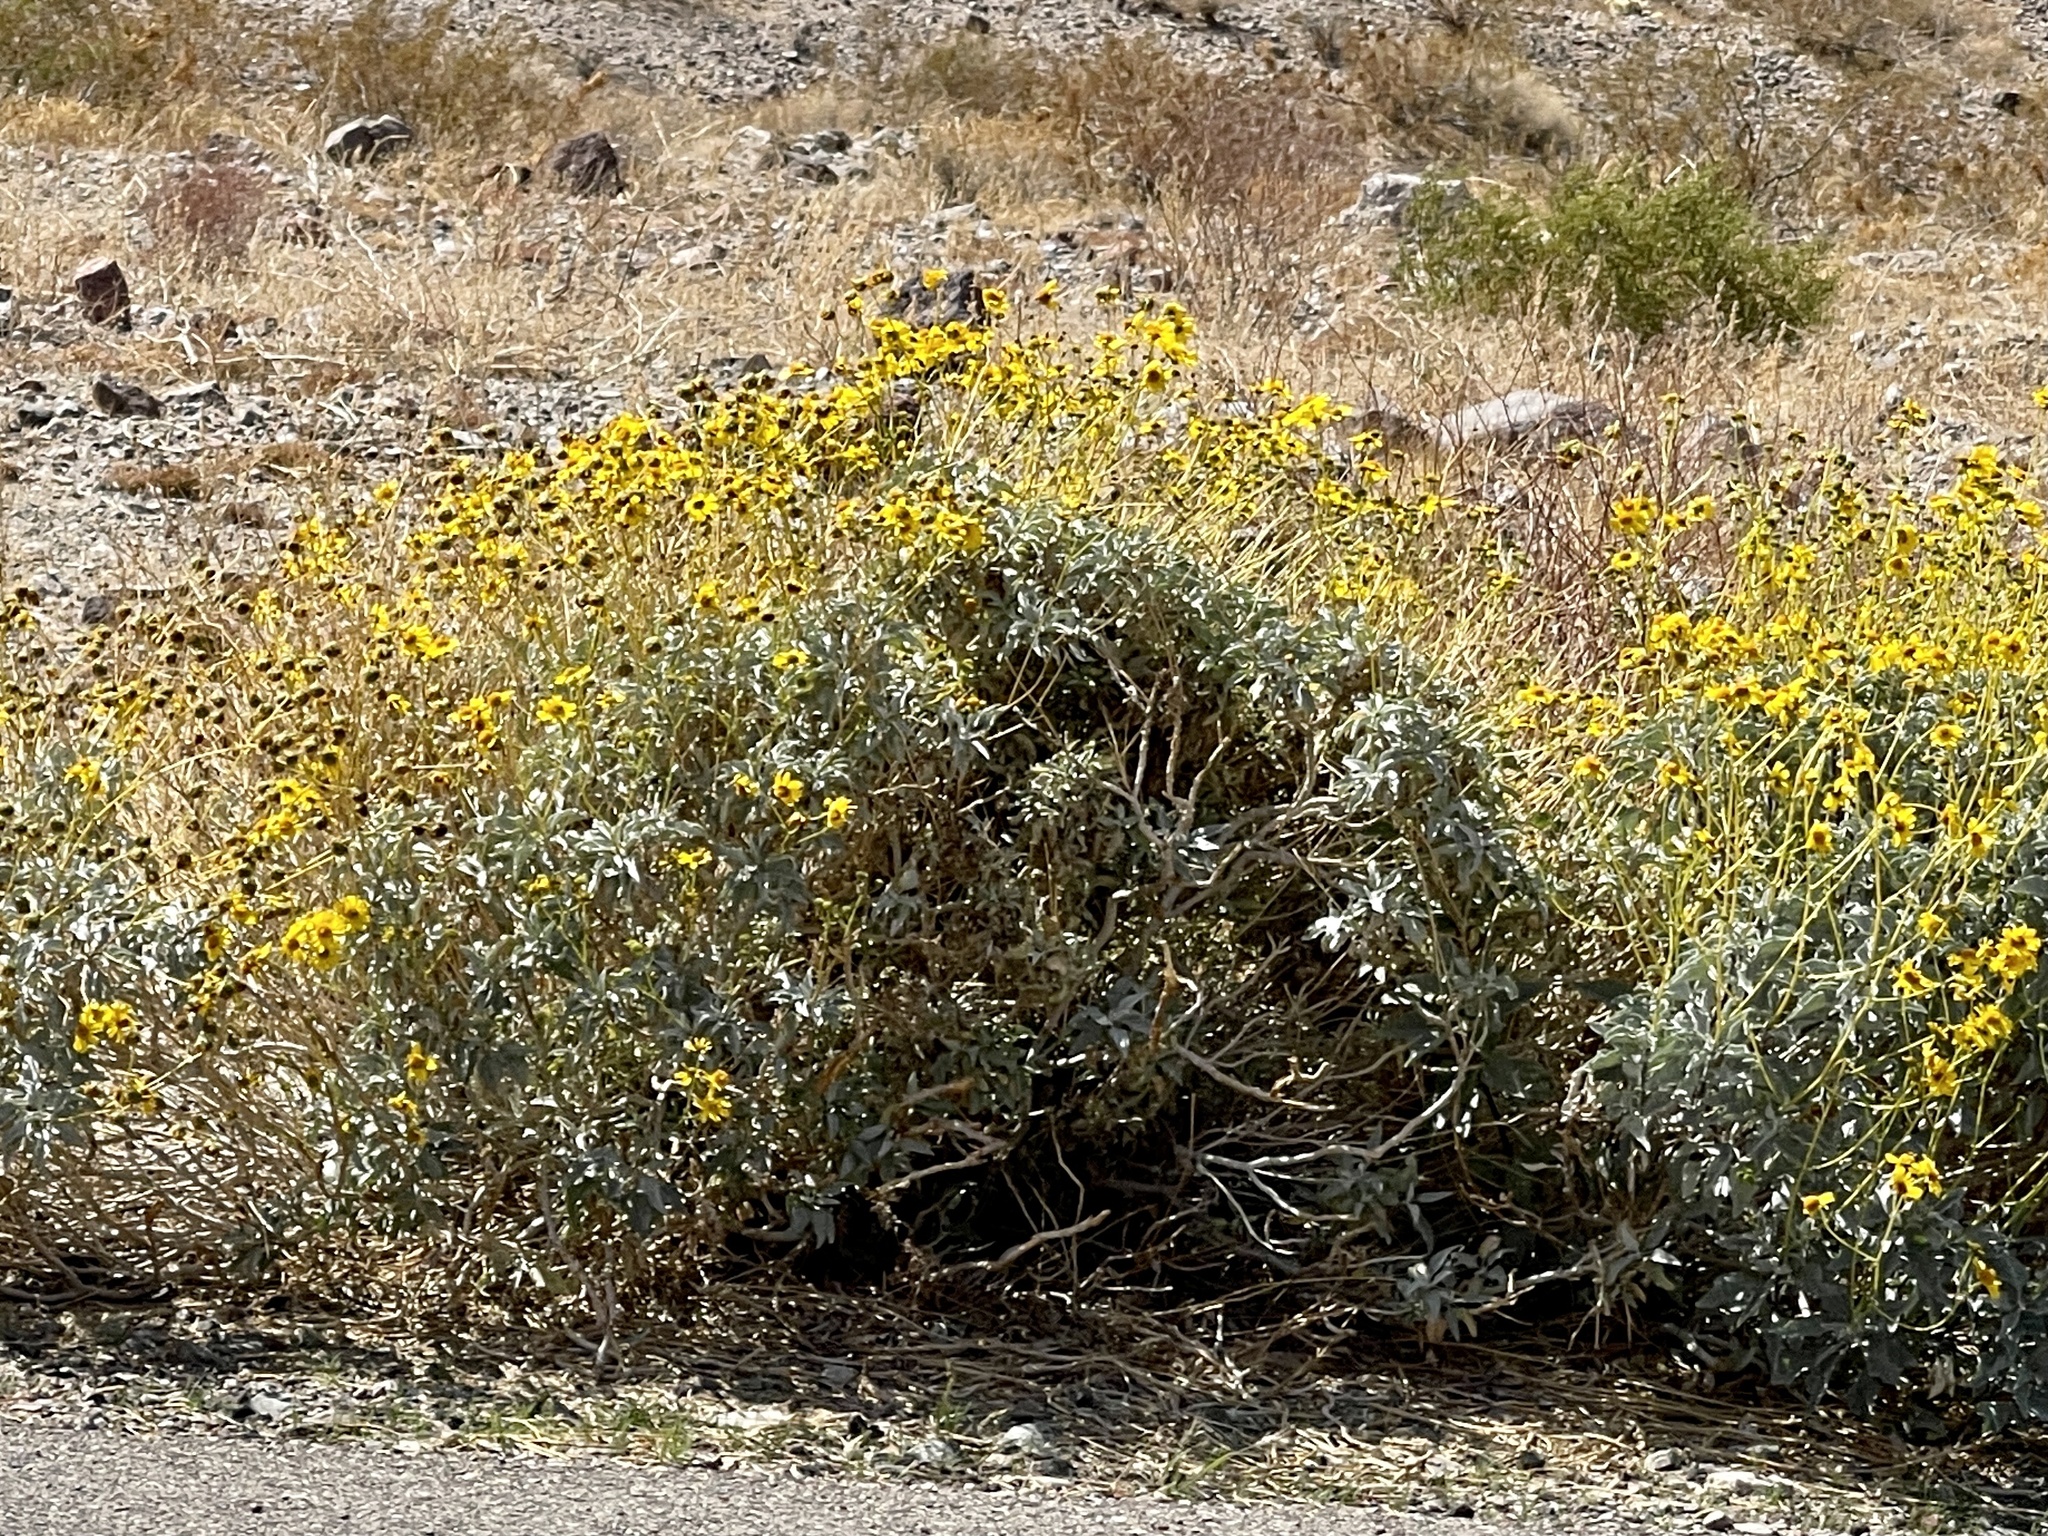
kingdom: Plantae
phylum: Tracheophyta
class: Magnoliopsida
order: Asterales
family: Asteraceae
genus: Encelia
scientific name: Encelia farinosa
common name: Brittlebush
